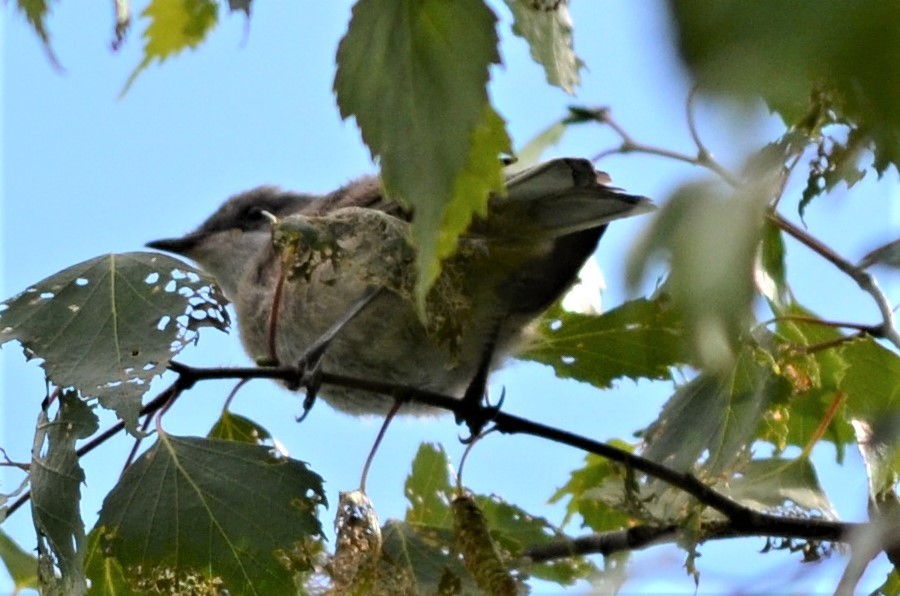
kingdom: Animalia
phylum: Chordata
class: Aves
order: Passeriformes
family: Sylviidae
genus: Sylvia
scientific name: Sylvia curruca
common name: Lesser whitethroat
